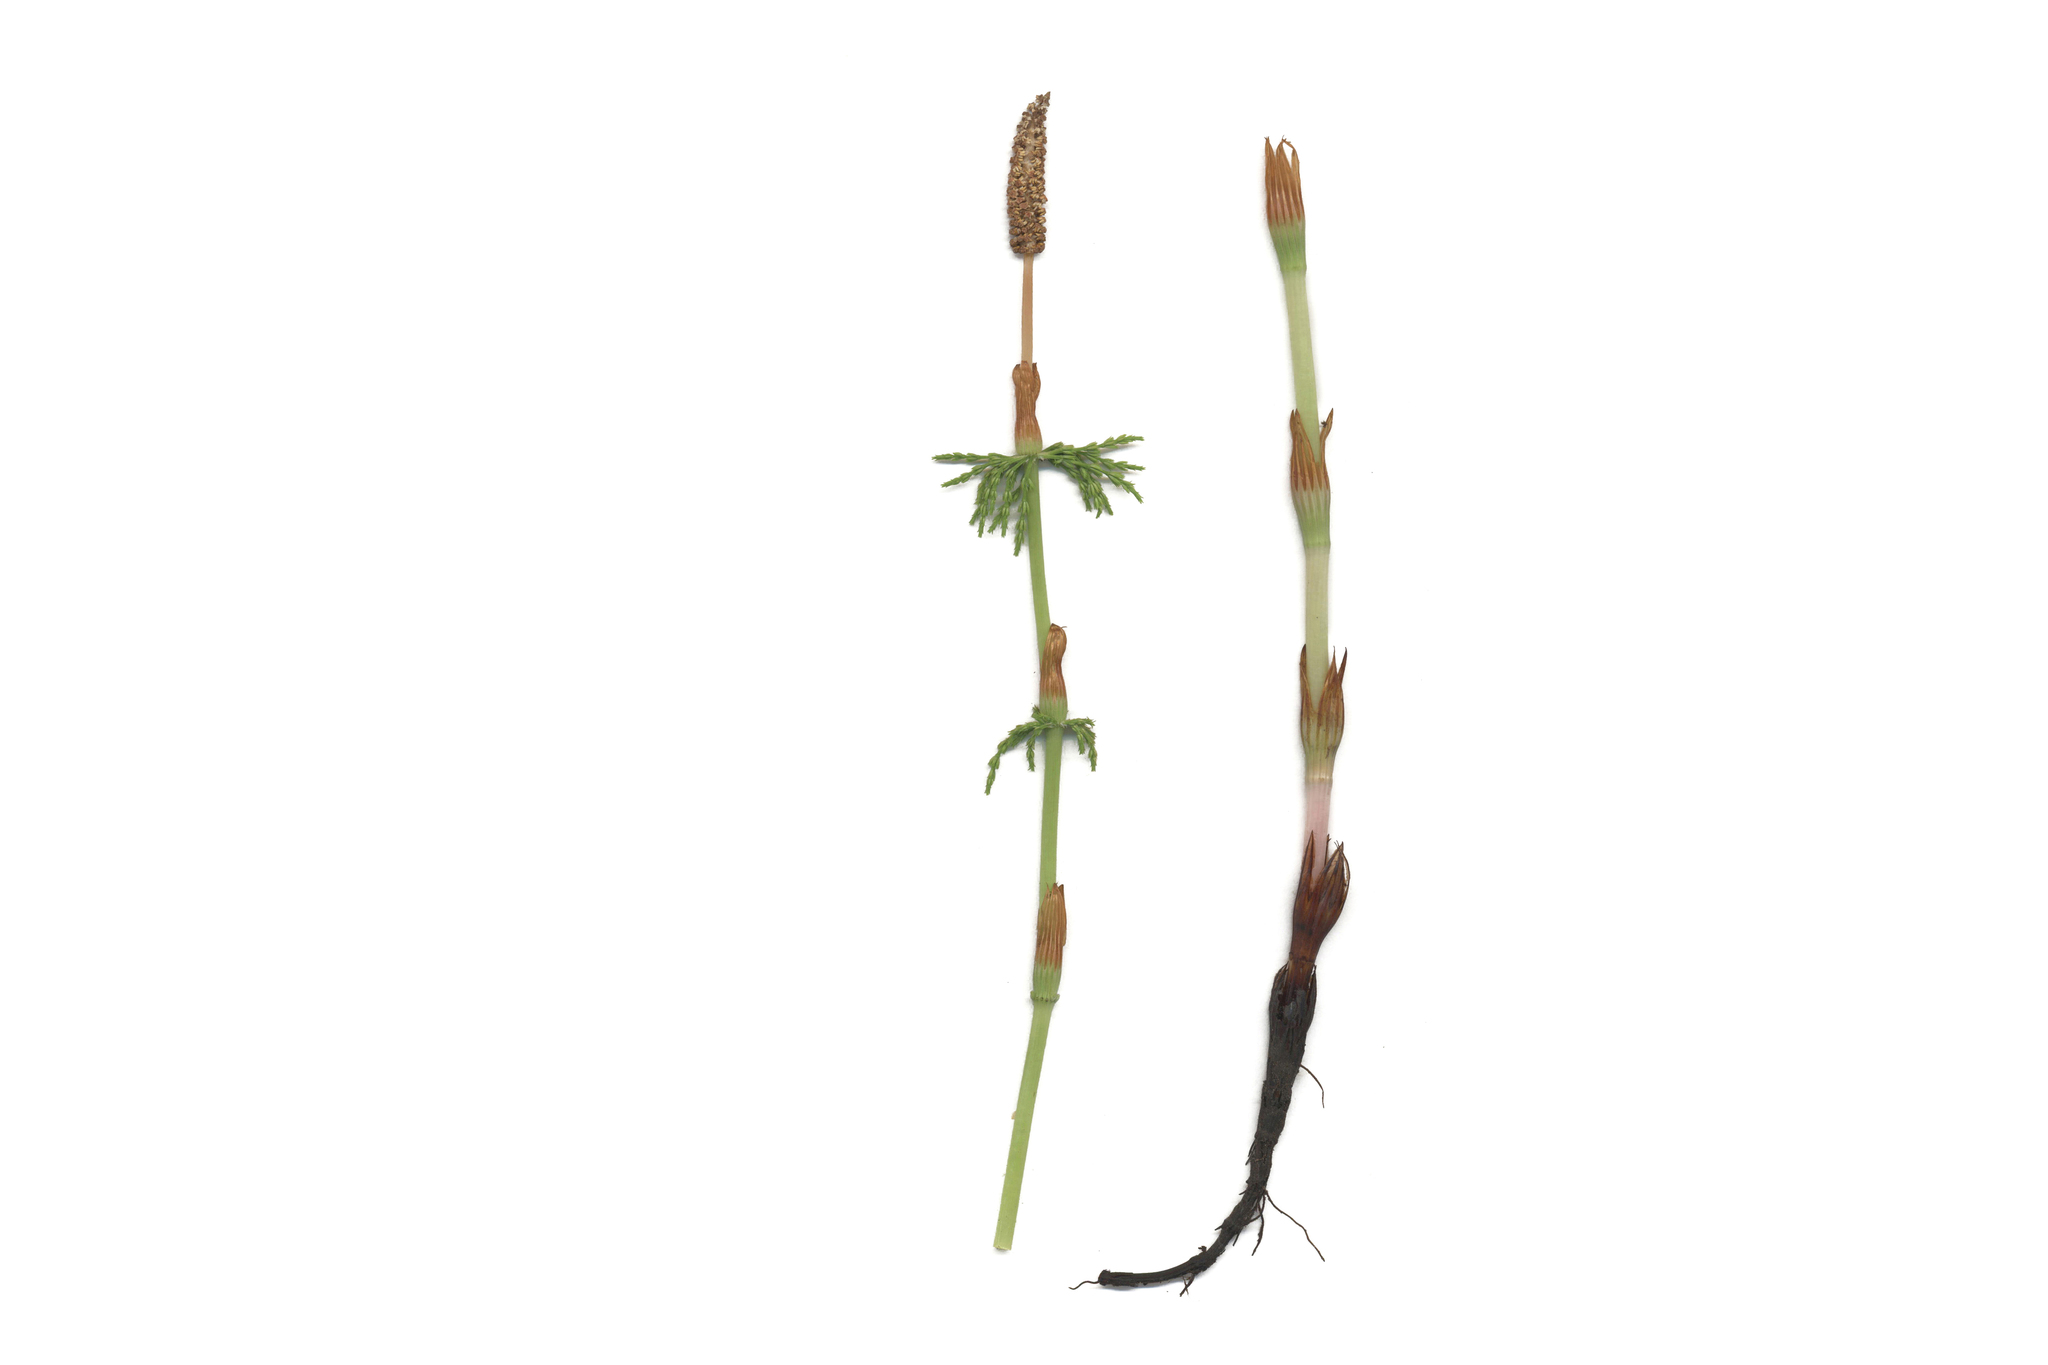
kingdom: Plantae
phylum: Tracheophyta
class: Polypodiopsida
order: Equisetales
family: Equisetaceae
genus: Equisetum
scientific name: Equisetum sylvaticum
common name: Wood horsetail
